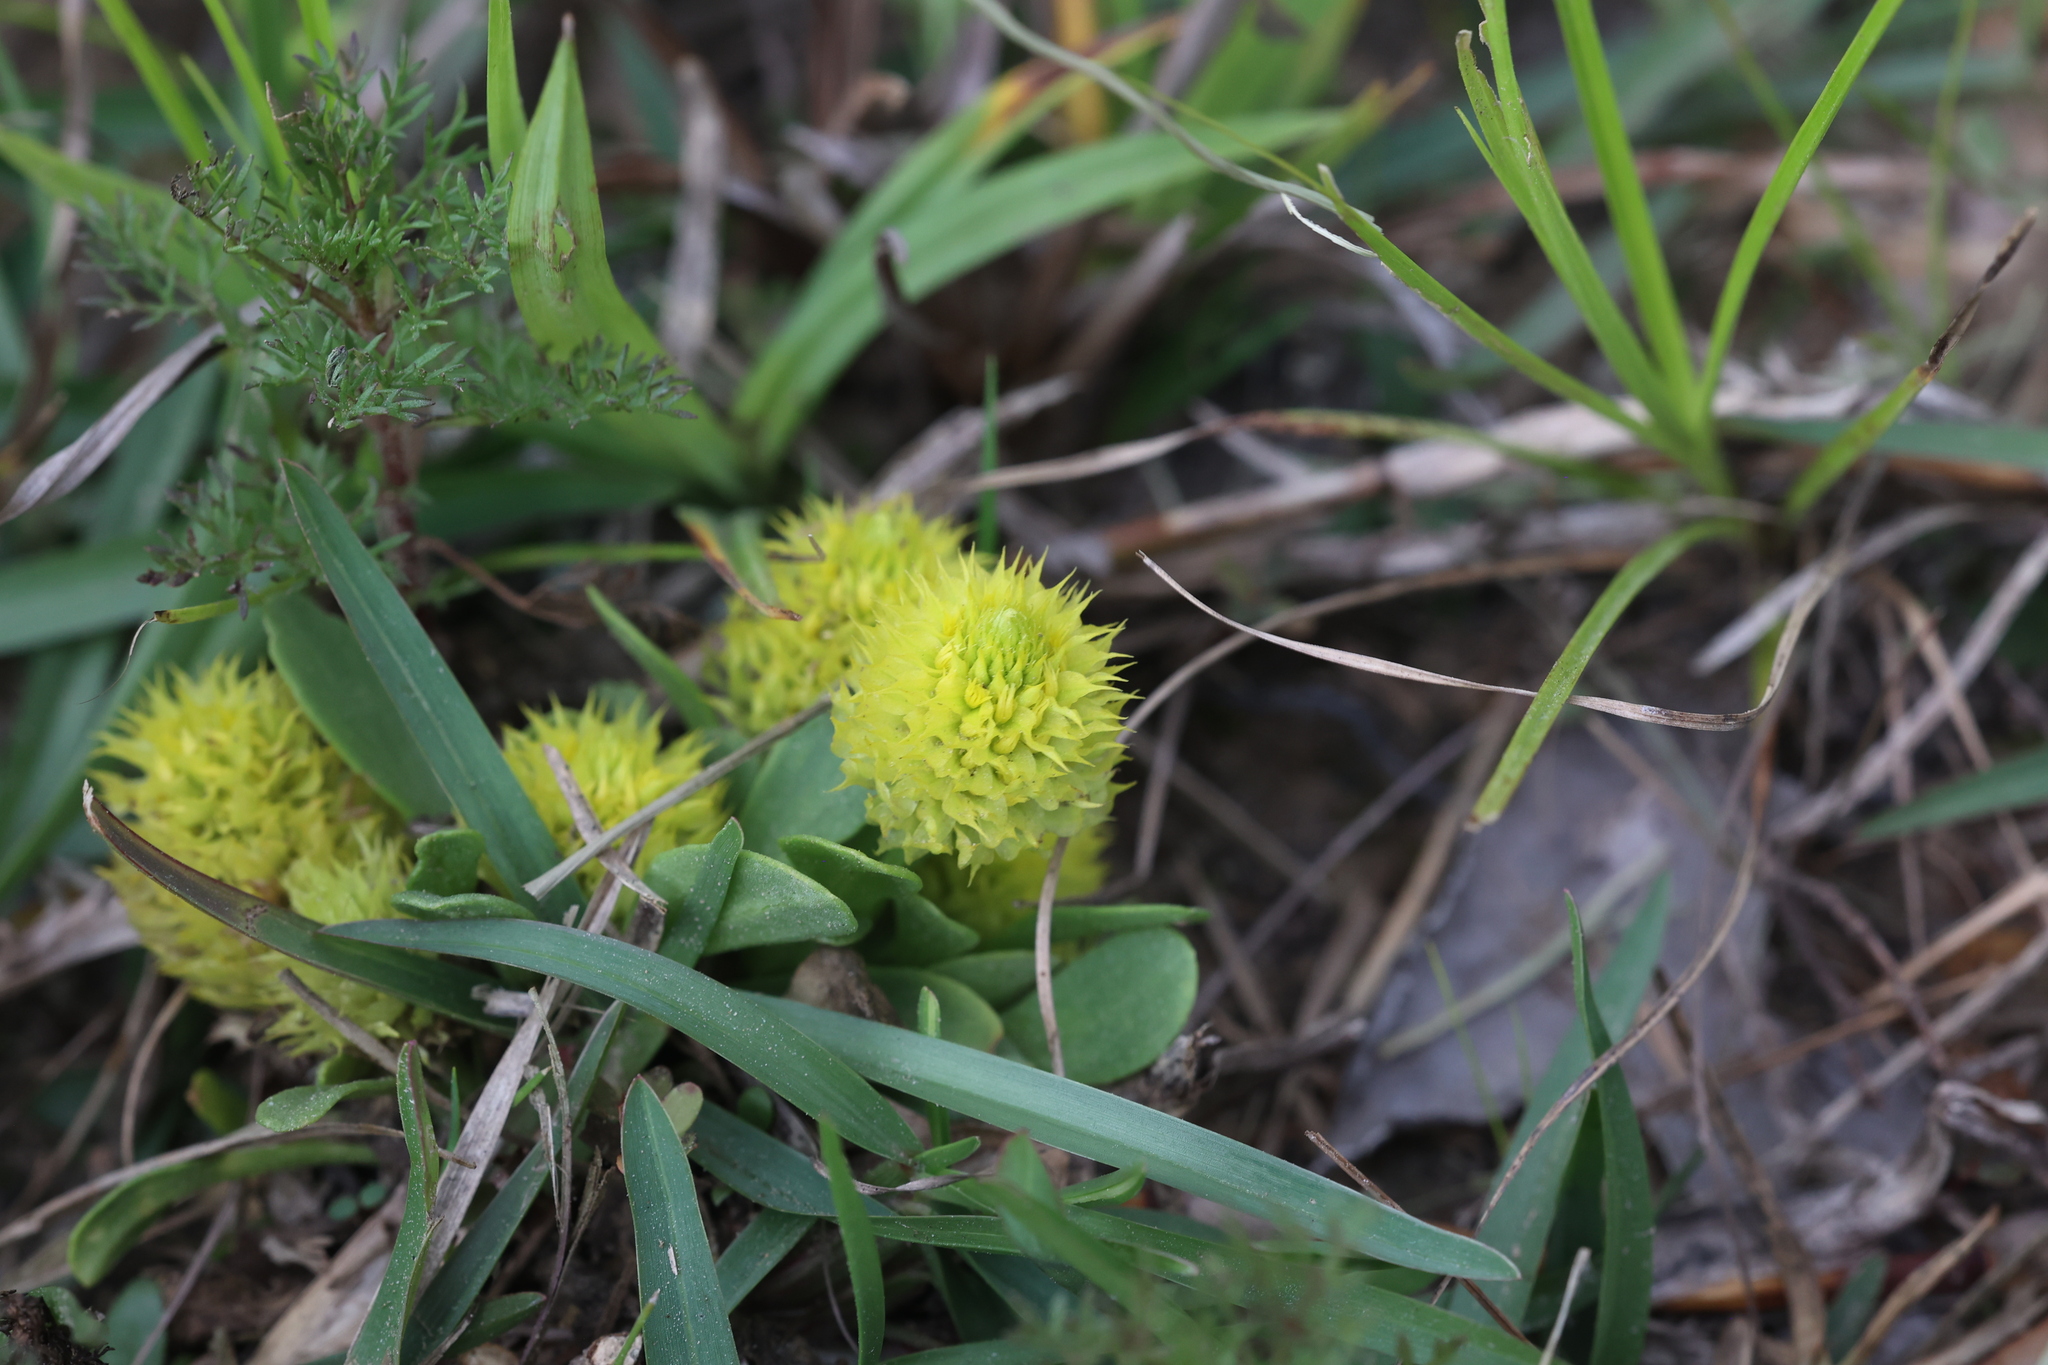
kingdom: Plantae
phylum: Tracheophyta
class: Magnoliopsida
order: Fabales
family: Polygalaceae
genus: Polygala
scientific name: Polygala nana
